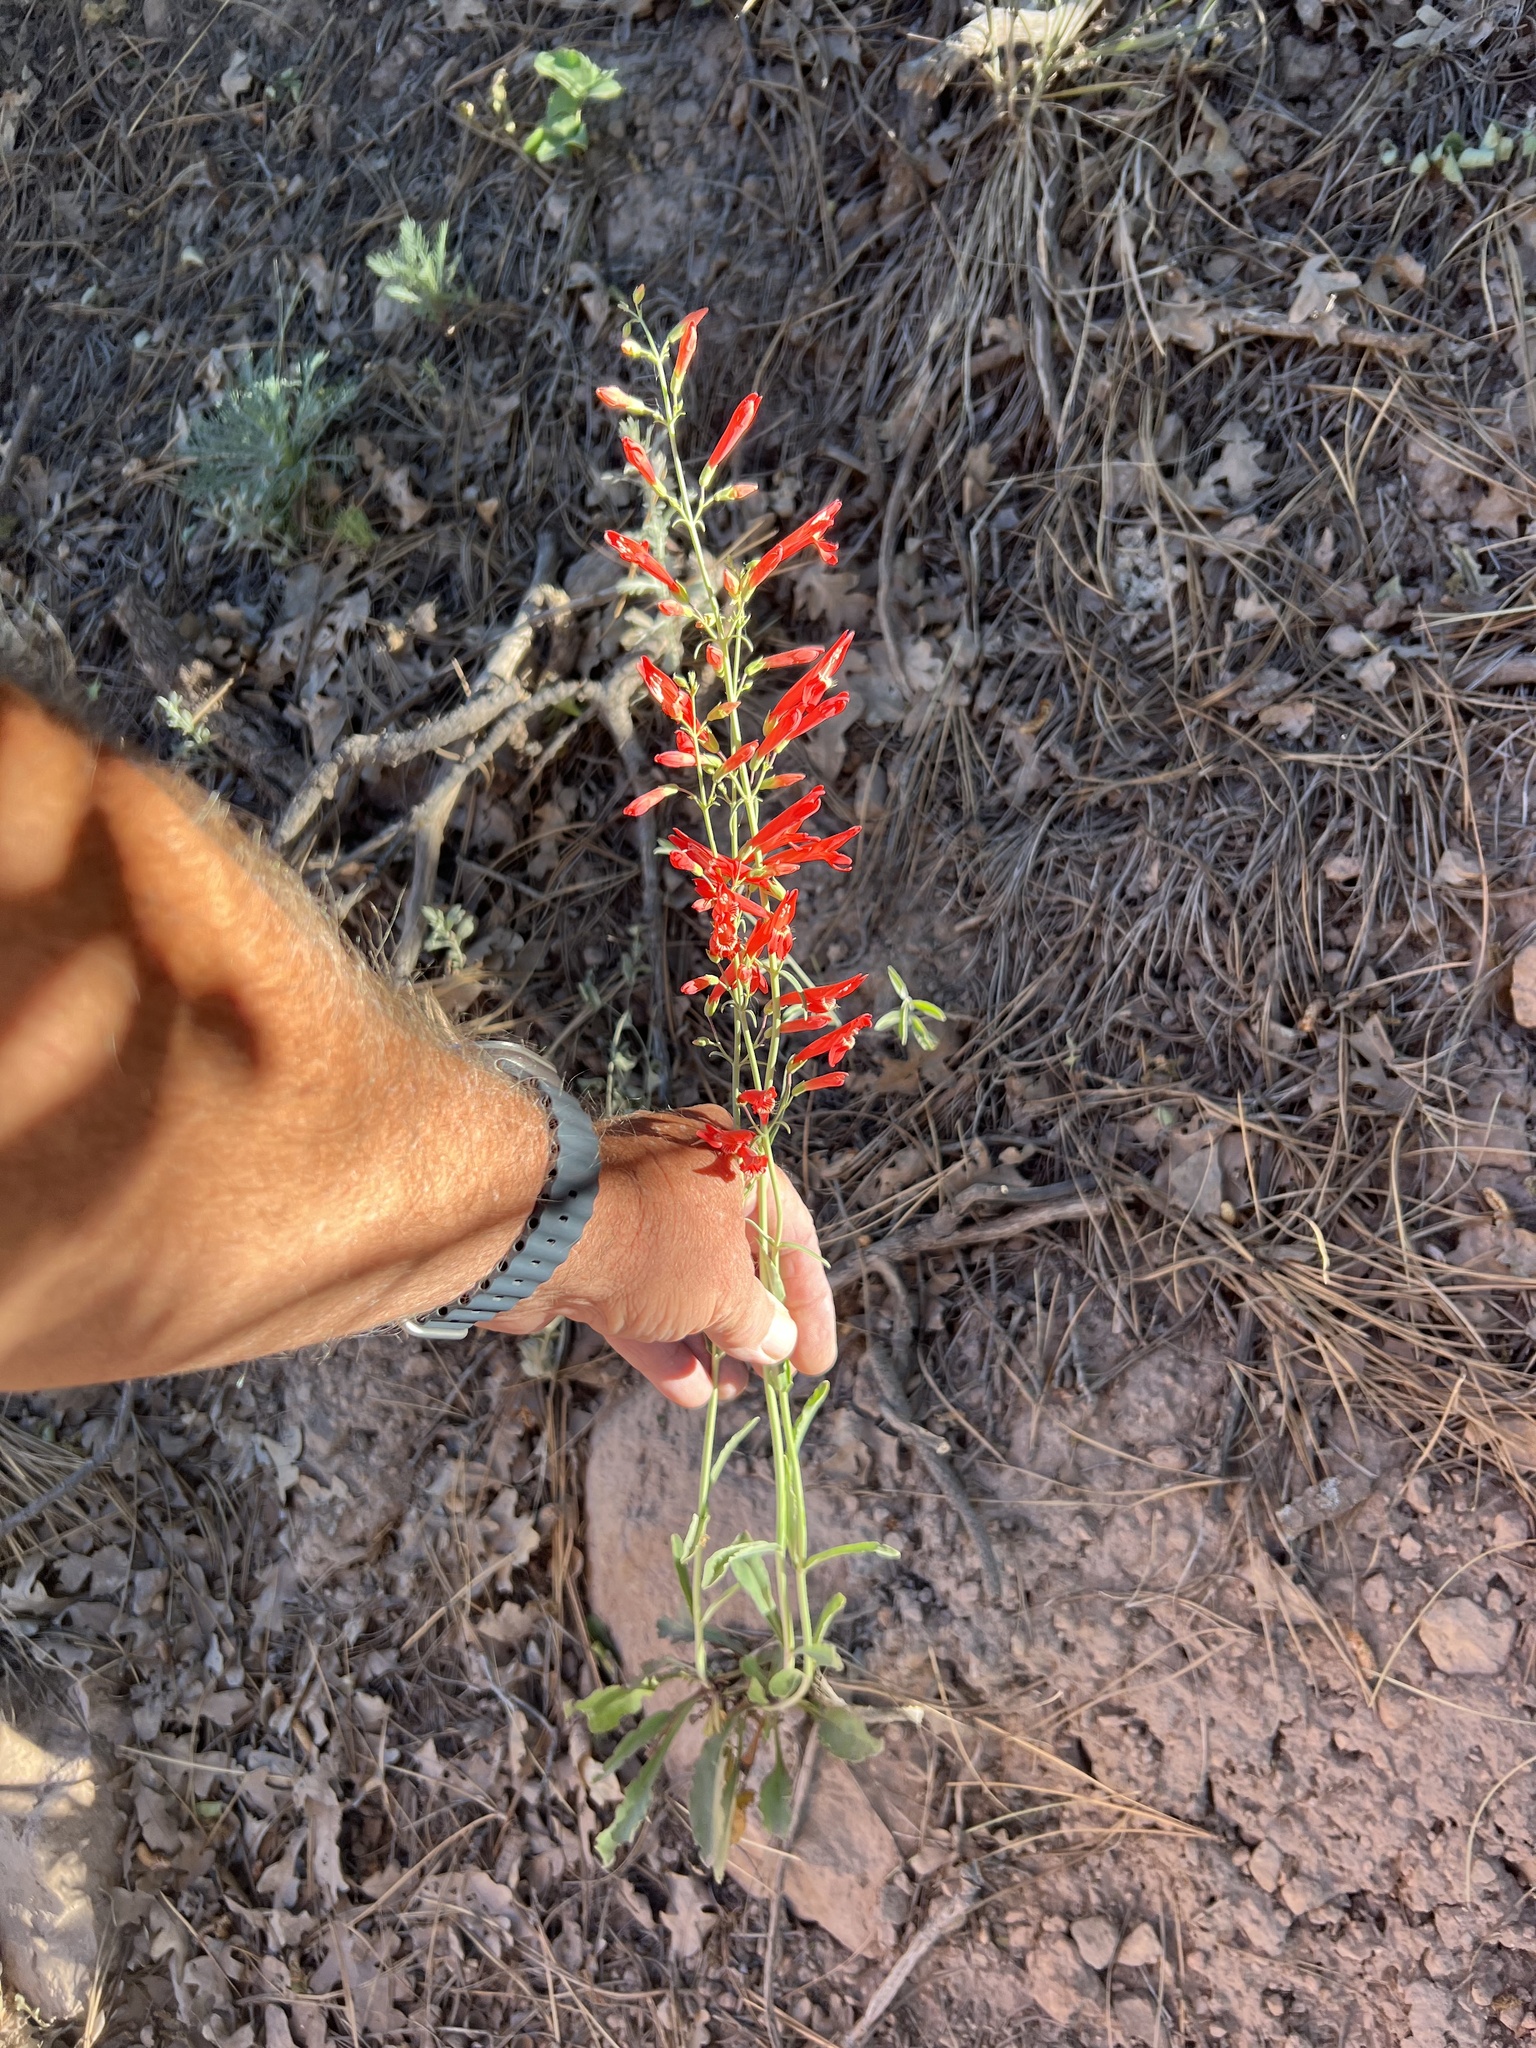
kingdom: Plantae
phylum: Tracheophyta
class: Magnoliopsida
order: Lamiales
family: Plantaginaceae
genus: Penstemon
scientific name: Penstemon barbatus
